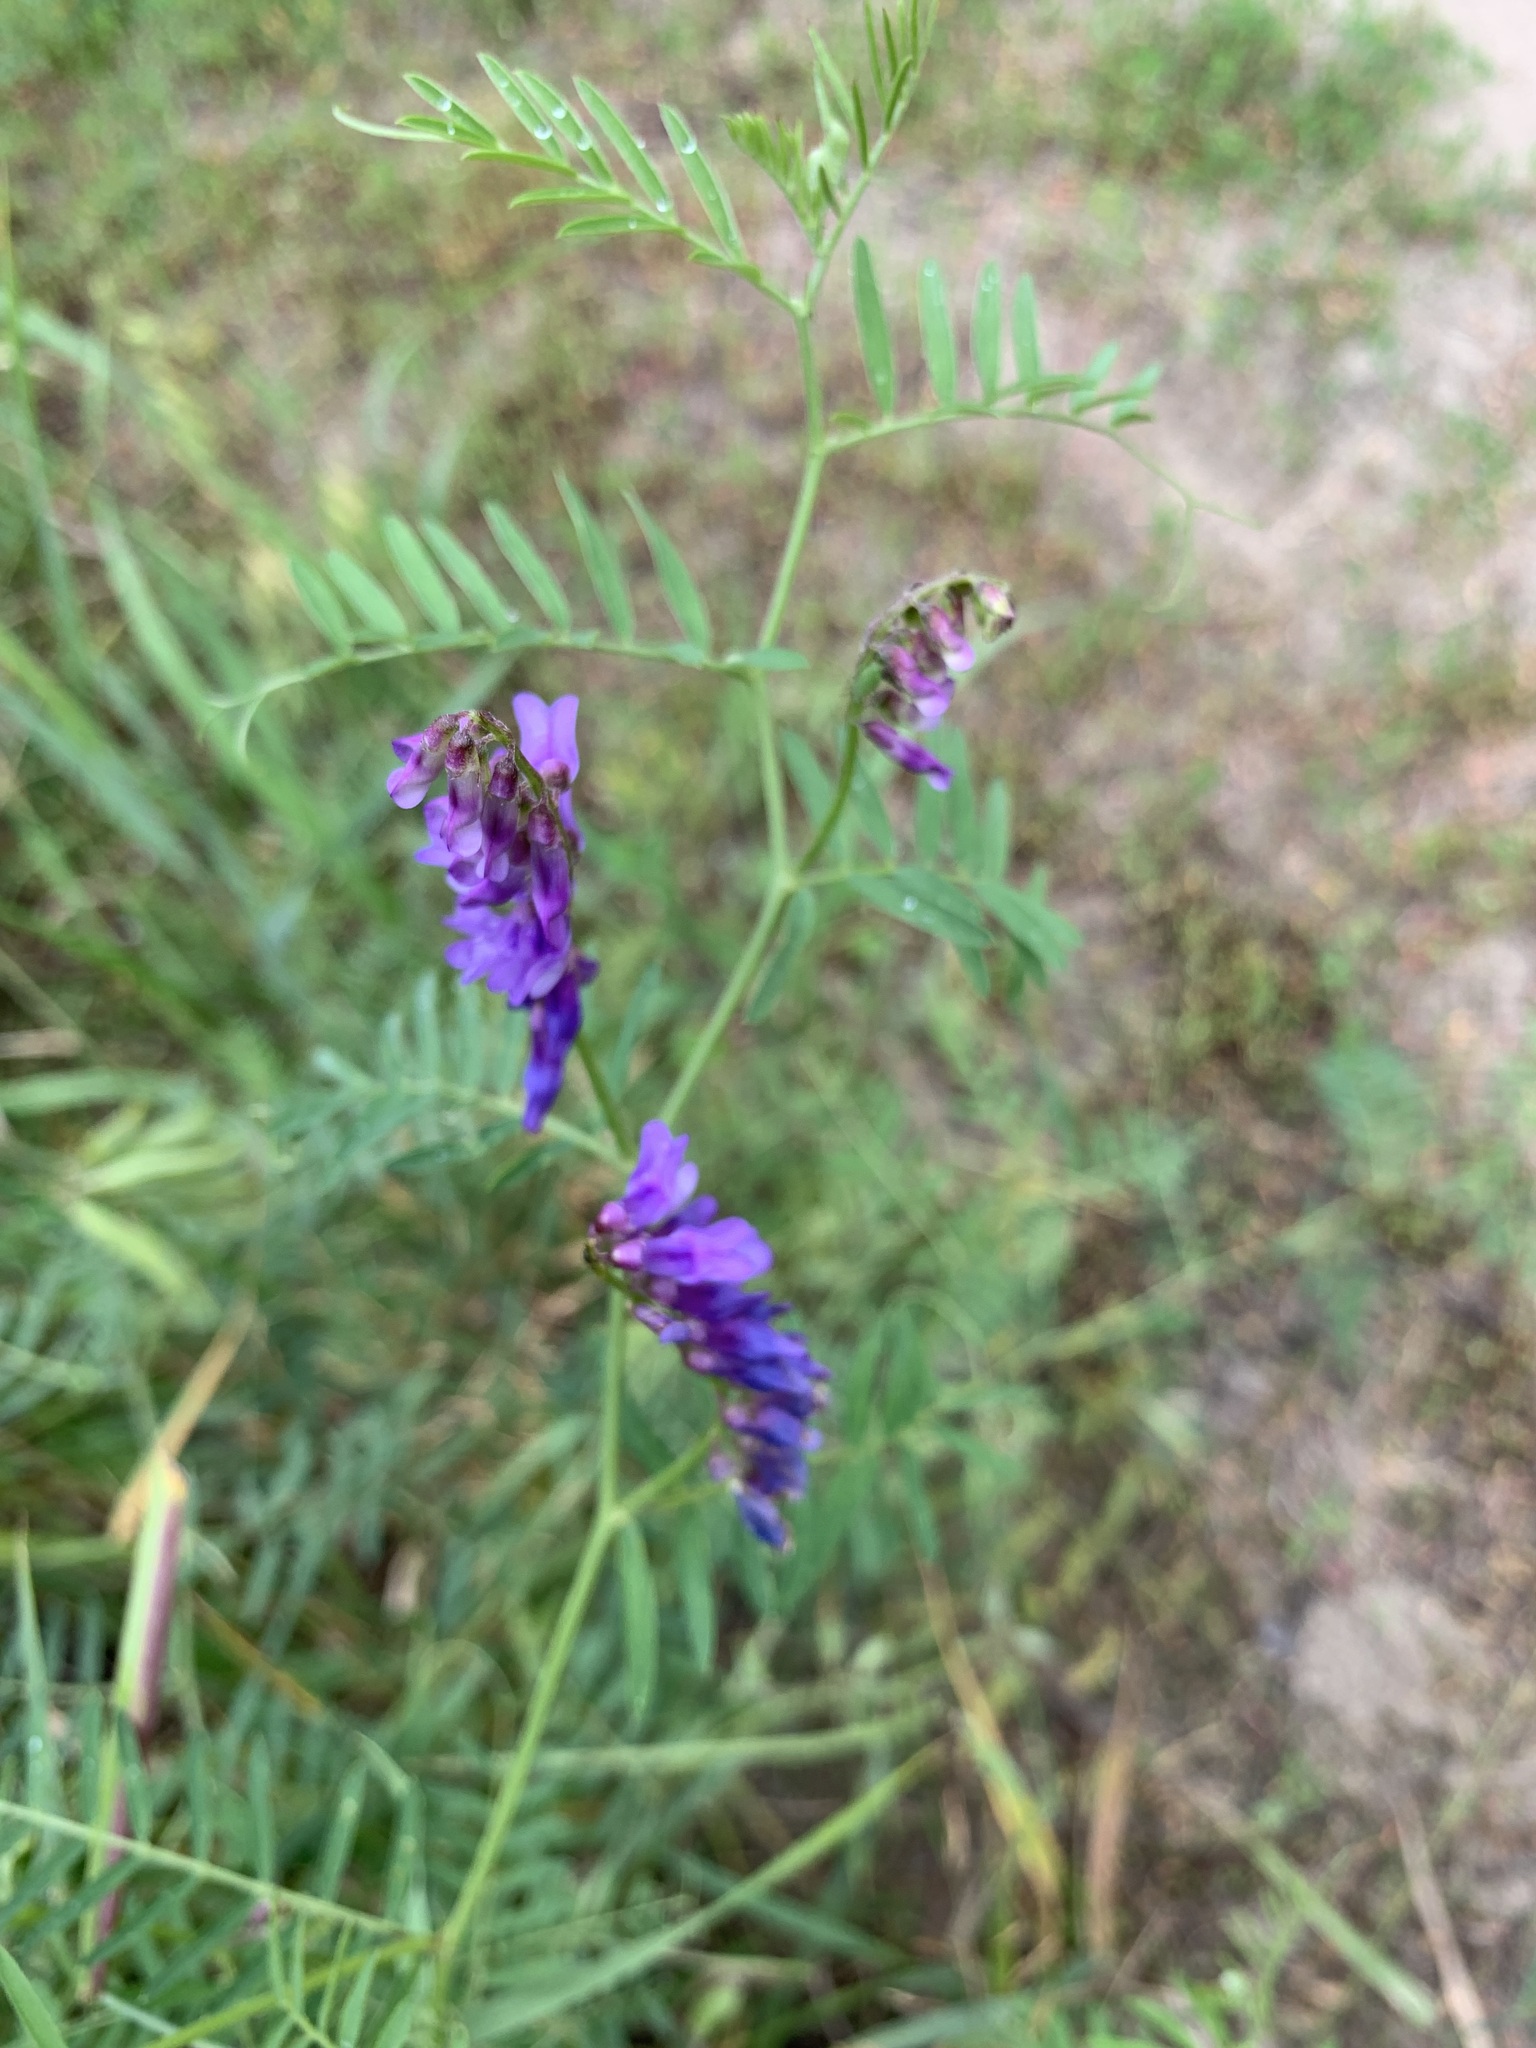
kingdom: Plantae
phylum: Tracheophyta
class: Magnoliopsida
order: Fabales
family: Fabaceae
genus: Vicia
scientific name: Vicia cracca
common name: Bird vetch
